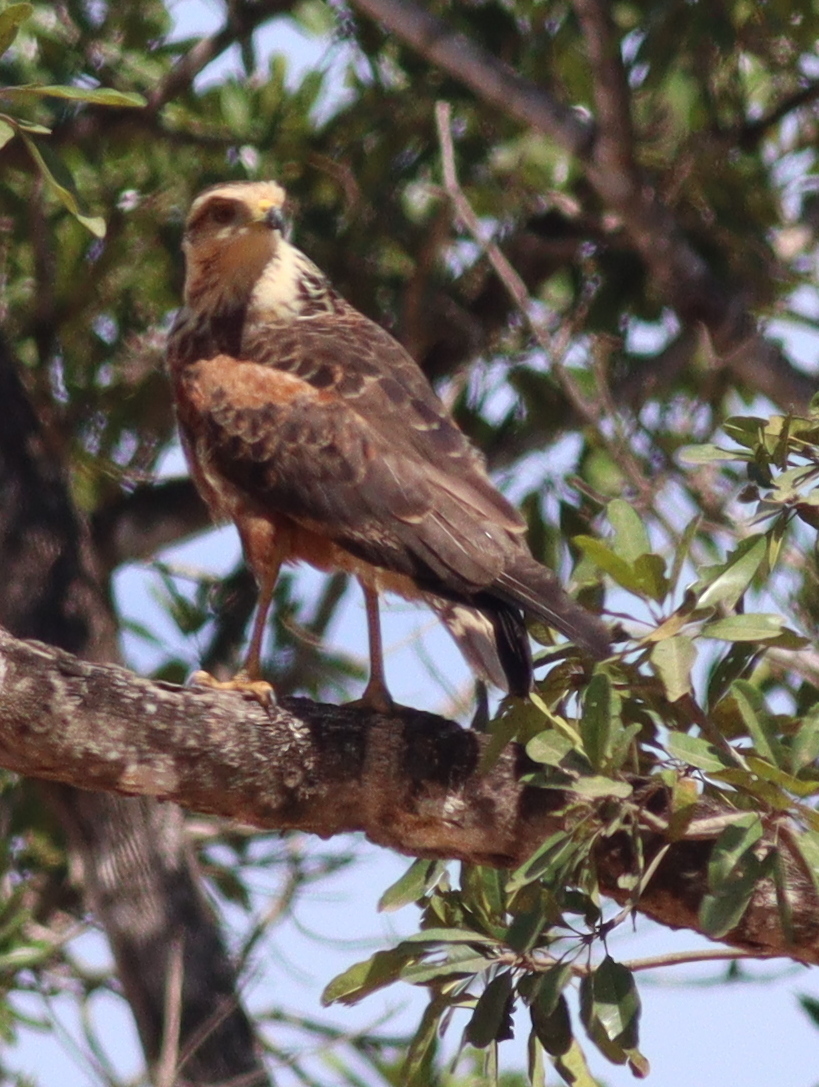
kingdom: Animalia
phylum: Chordata
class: Aves
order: Accipitriformes
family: Accipitridae
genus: Buteogallus
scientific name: Buteogallus meridionalis
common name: Savanna hawk
